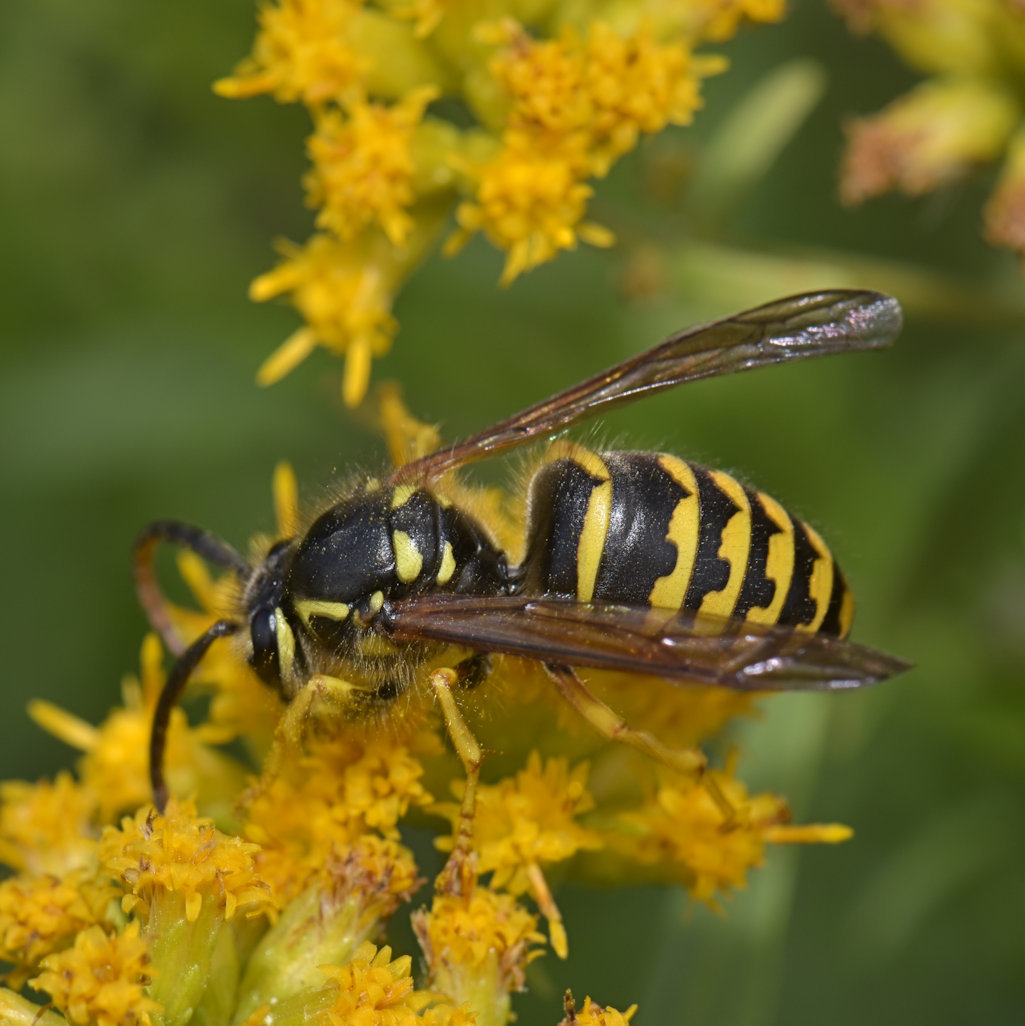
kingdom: Animalia
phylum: Arthropoda
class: Insecta
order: Hymenoptera
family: Vespidae
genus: Dolichovespula
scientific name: Dolichovespula arenaria
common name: Aerial yellowjacket
